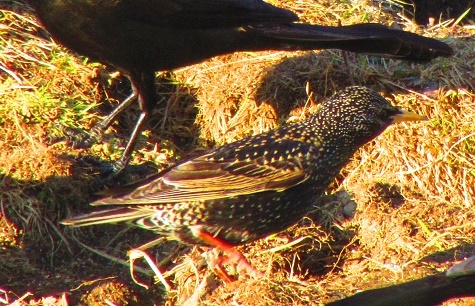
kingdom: Animalia
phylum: Chordata
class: Aves
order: Passeriformes
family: Sturnidae
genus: Sturnus
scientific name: Sturnus vulgaris
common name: Common starling
